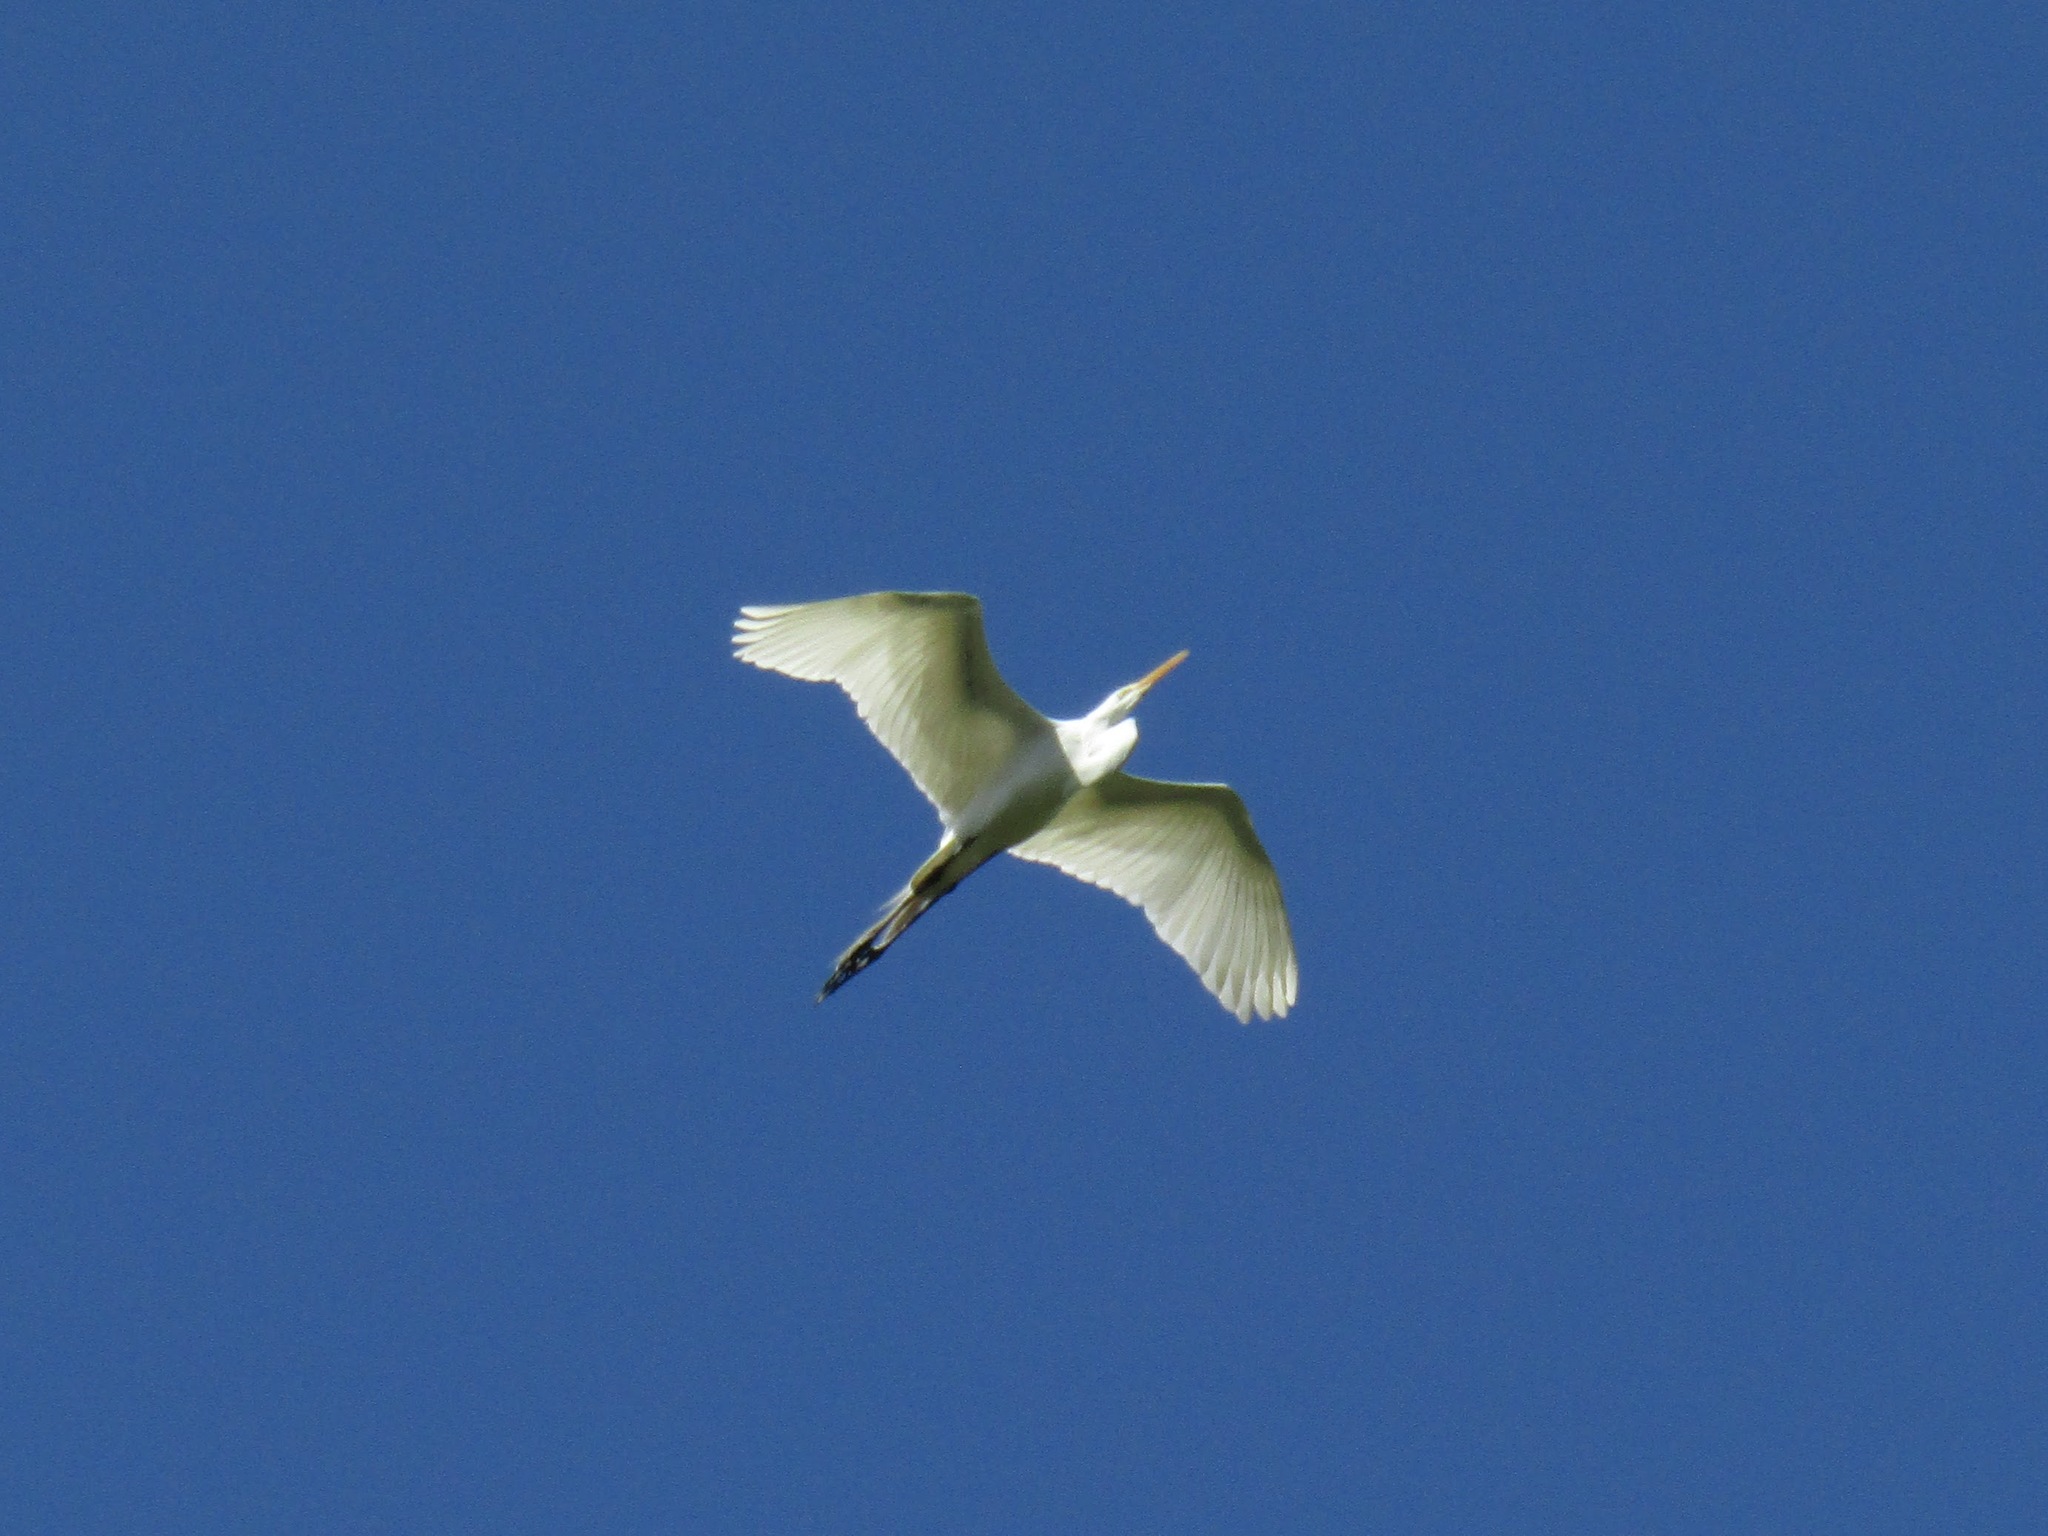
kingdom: Animalia
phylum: Chordata
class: Aves
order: Pelecaniformes
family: Ardeidae
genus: Ardea
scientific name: Ardea alba
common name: Great egret
